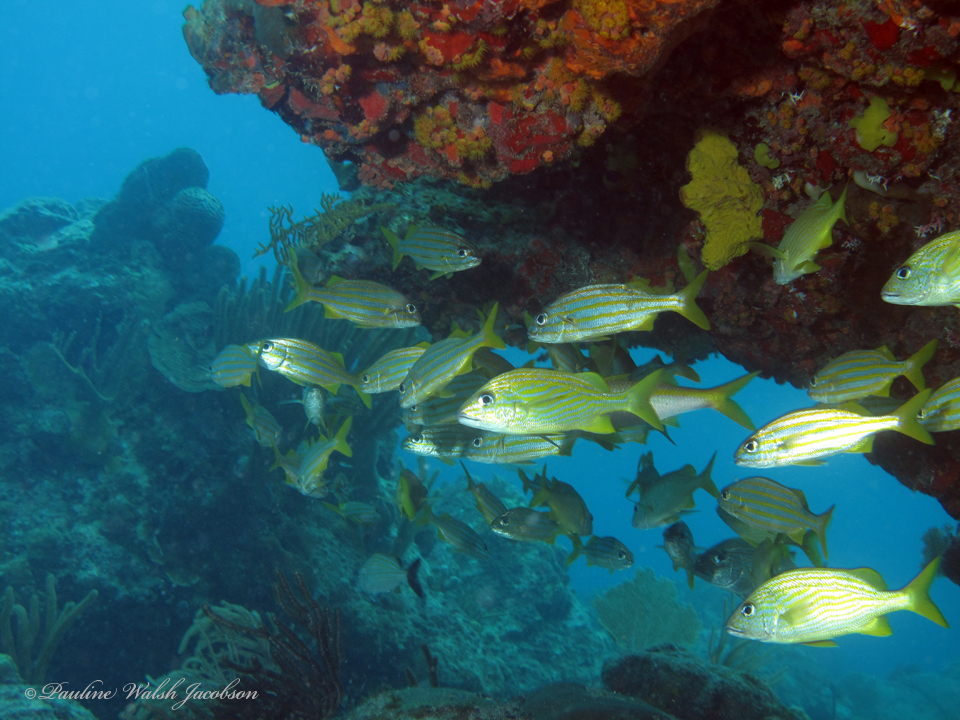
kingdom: Animalia
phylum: Chordata
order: Perciformes
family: Haemulidae
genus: Haemulon
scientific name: Haemulon flavolineatum
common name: French grunt
